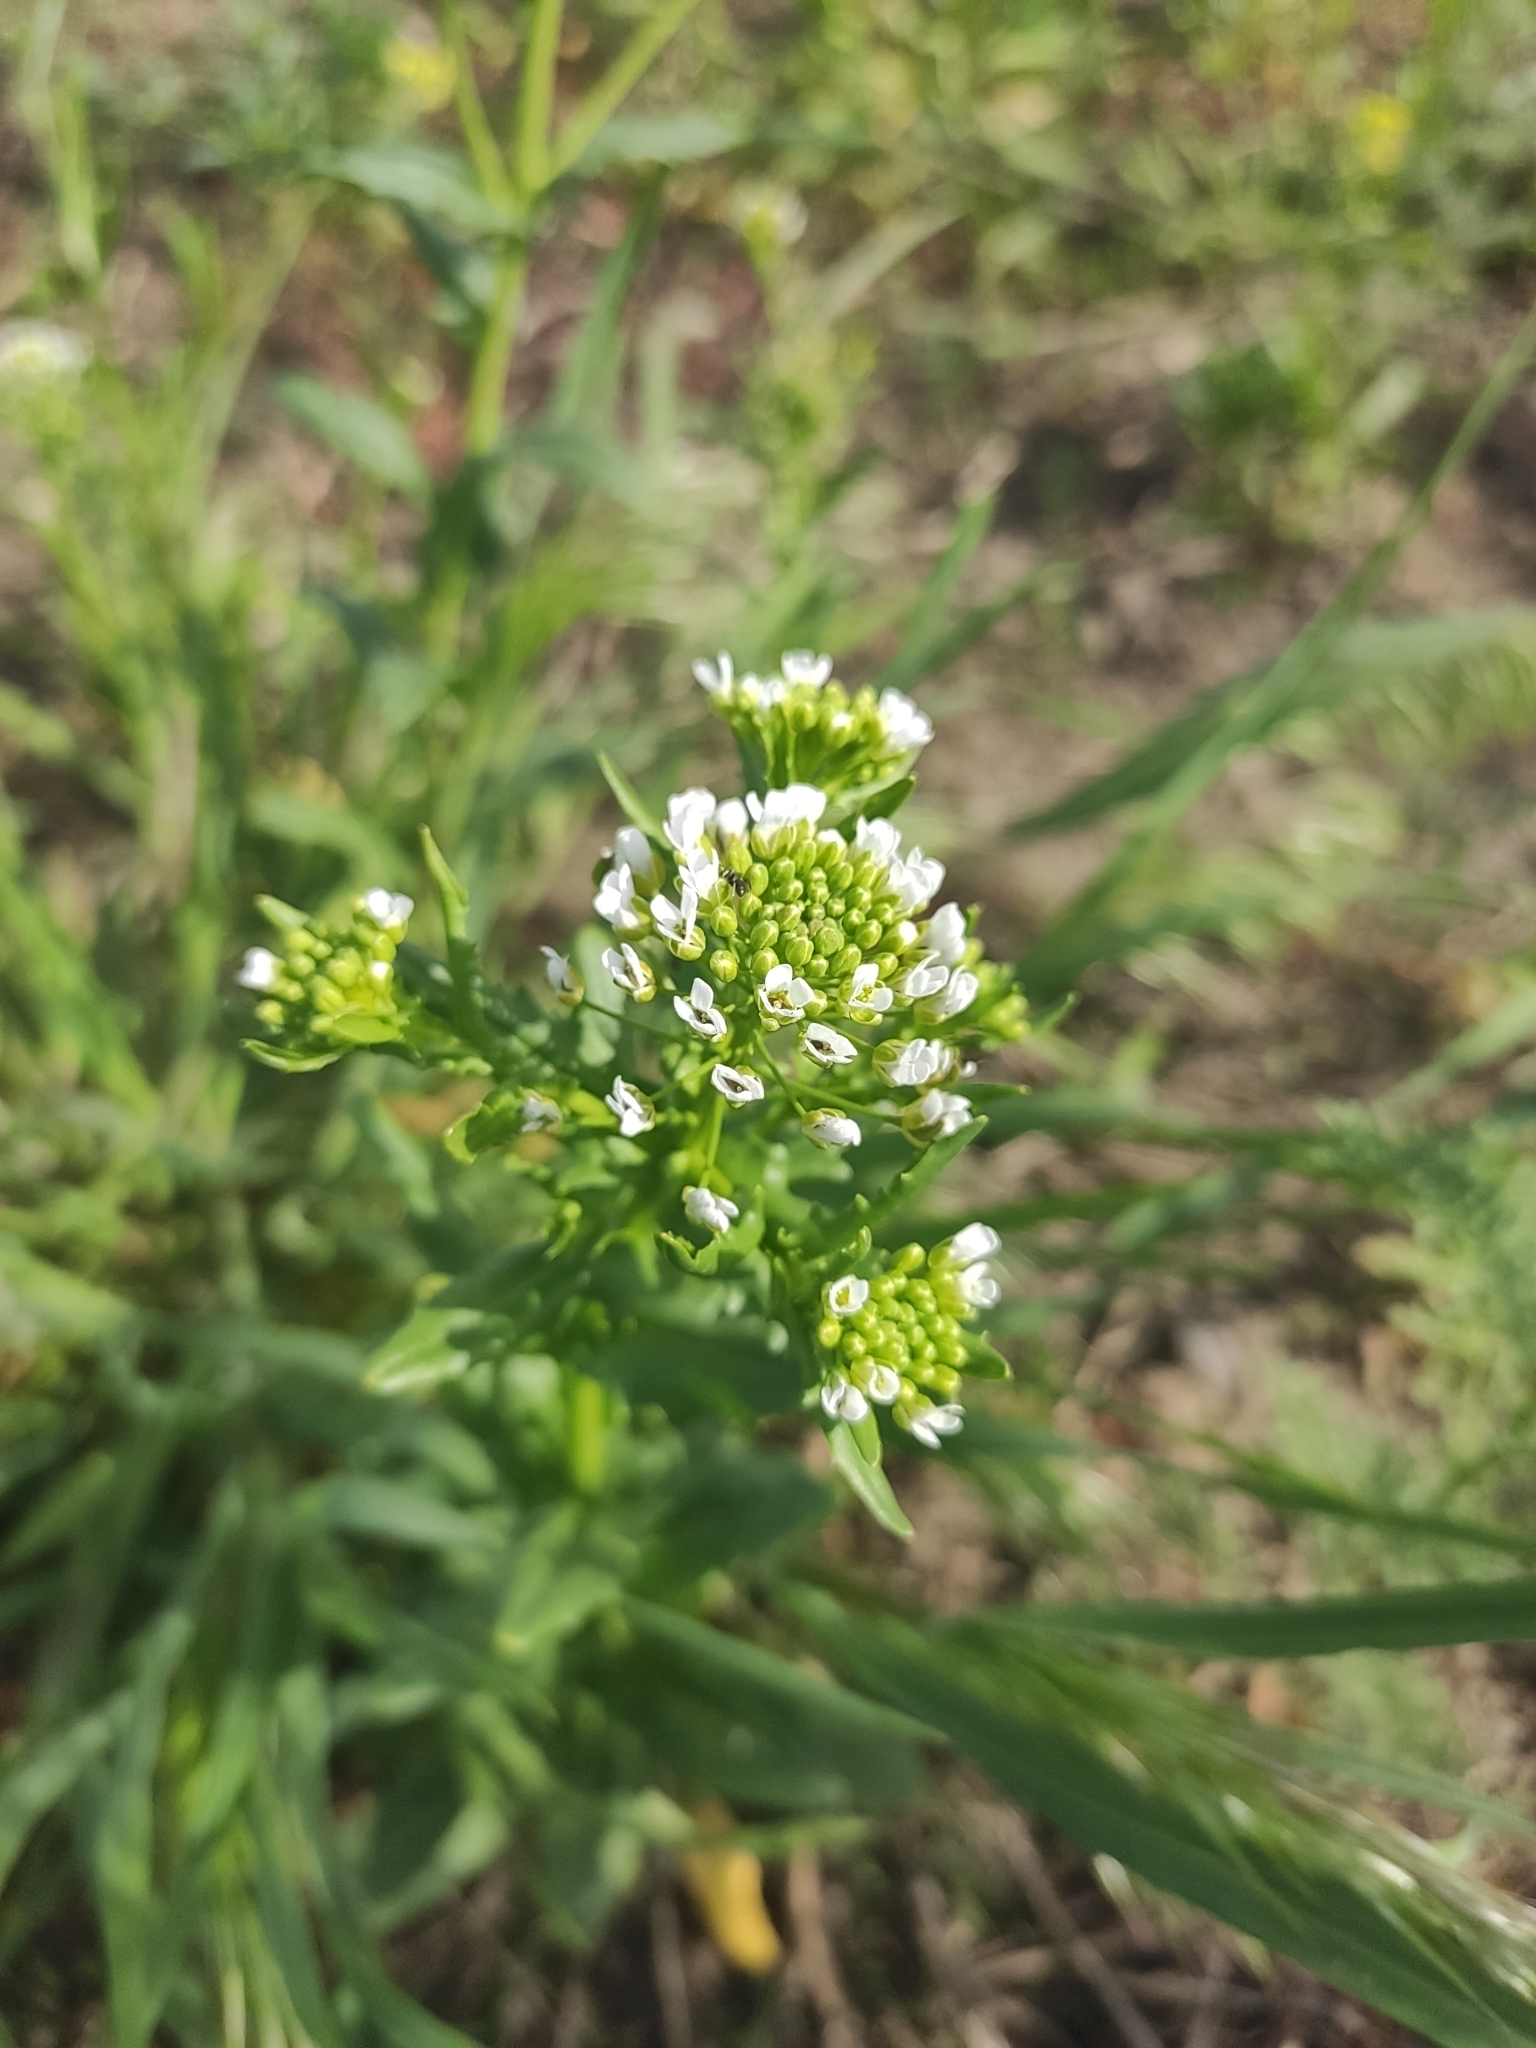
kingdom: Plantae
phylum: Tracheophyta
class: Magnoliopsida
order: Brassicales
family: Brassicaceae
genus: Thlaspi
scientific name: Thlaspi arvense
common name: Field pennycress
